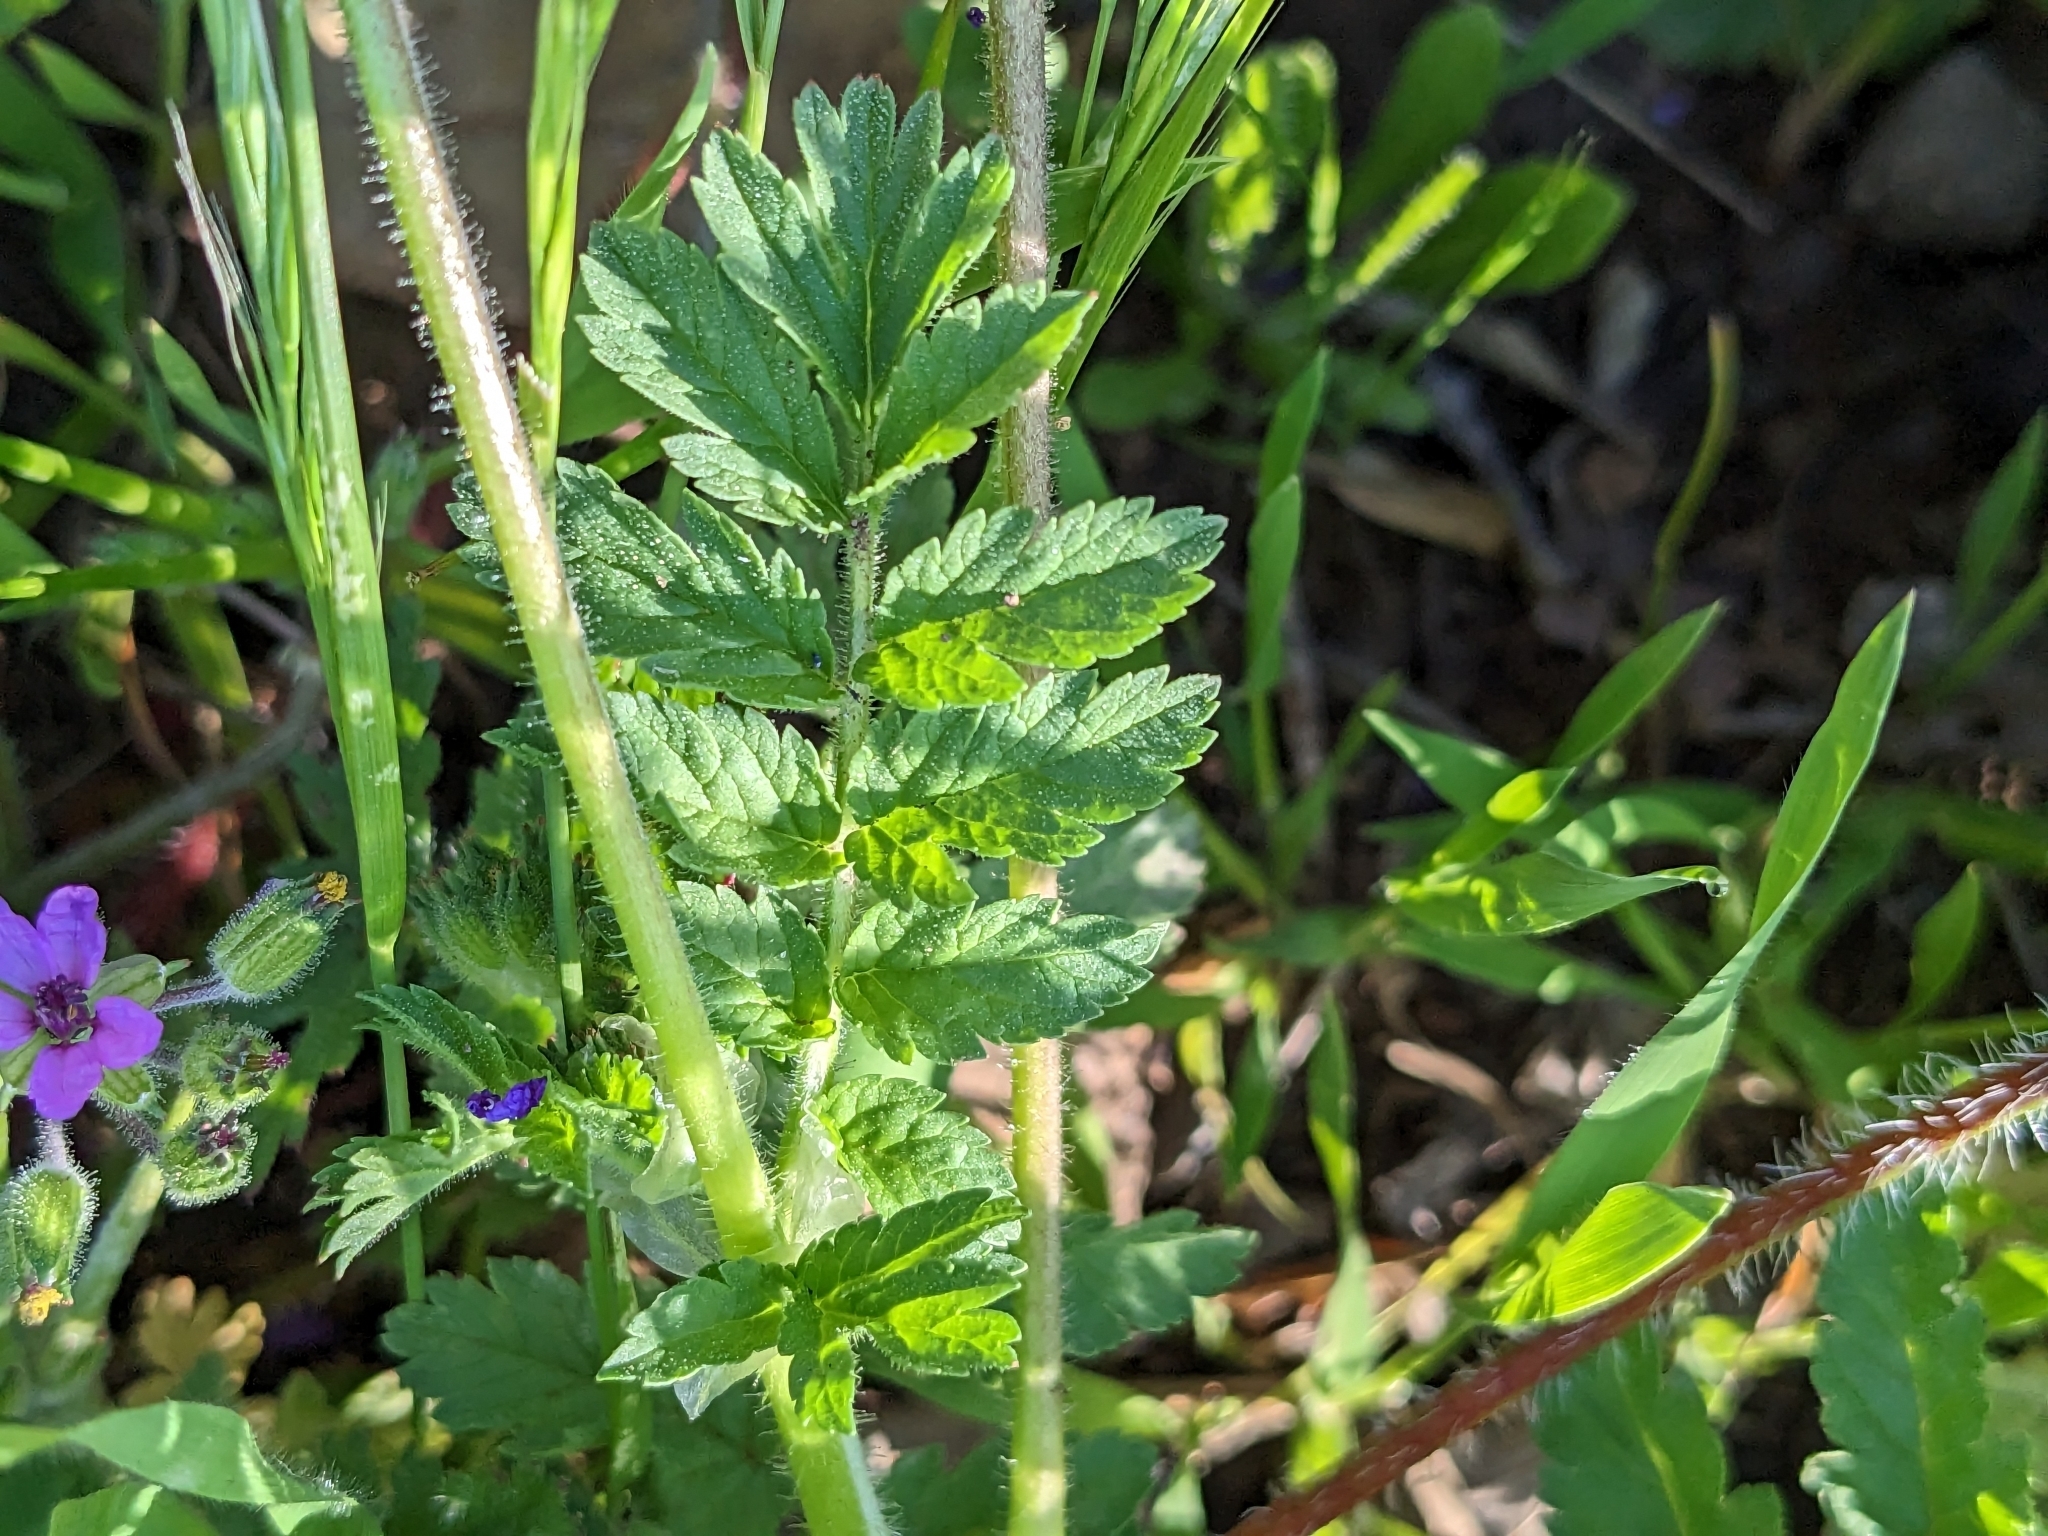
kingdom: Plantae
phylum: Tracheophyta
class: Magnoliopsida
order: Geraniales
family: Geraniaceae
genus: Erodium
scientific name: Erodium moschatum
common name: Musk stork's-bill
